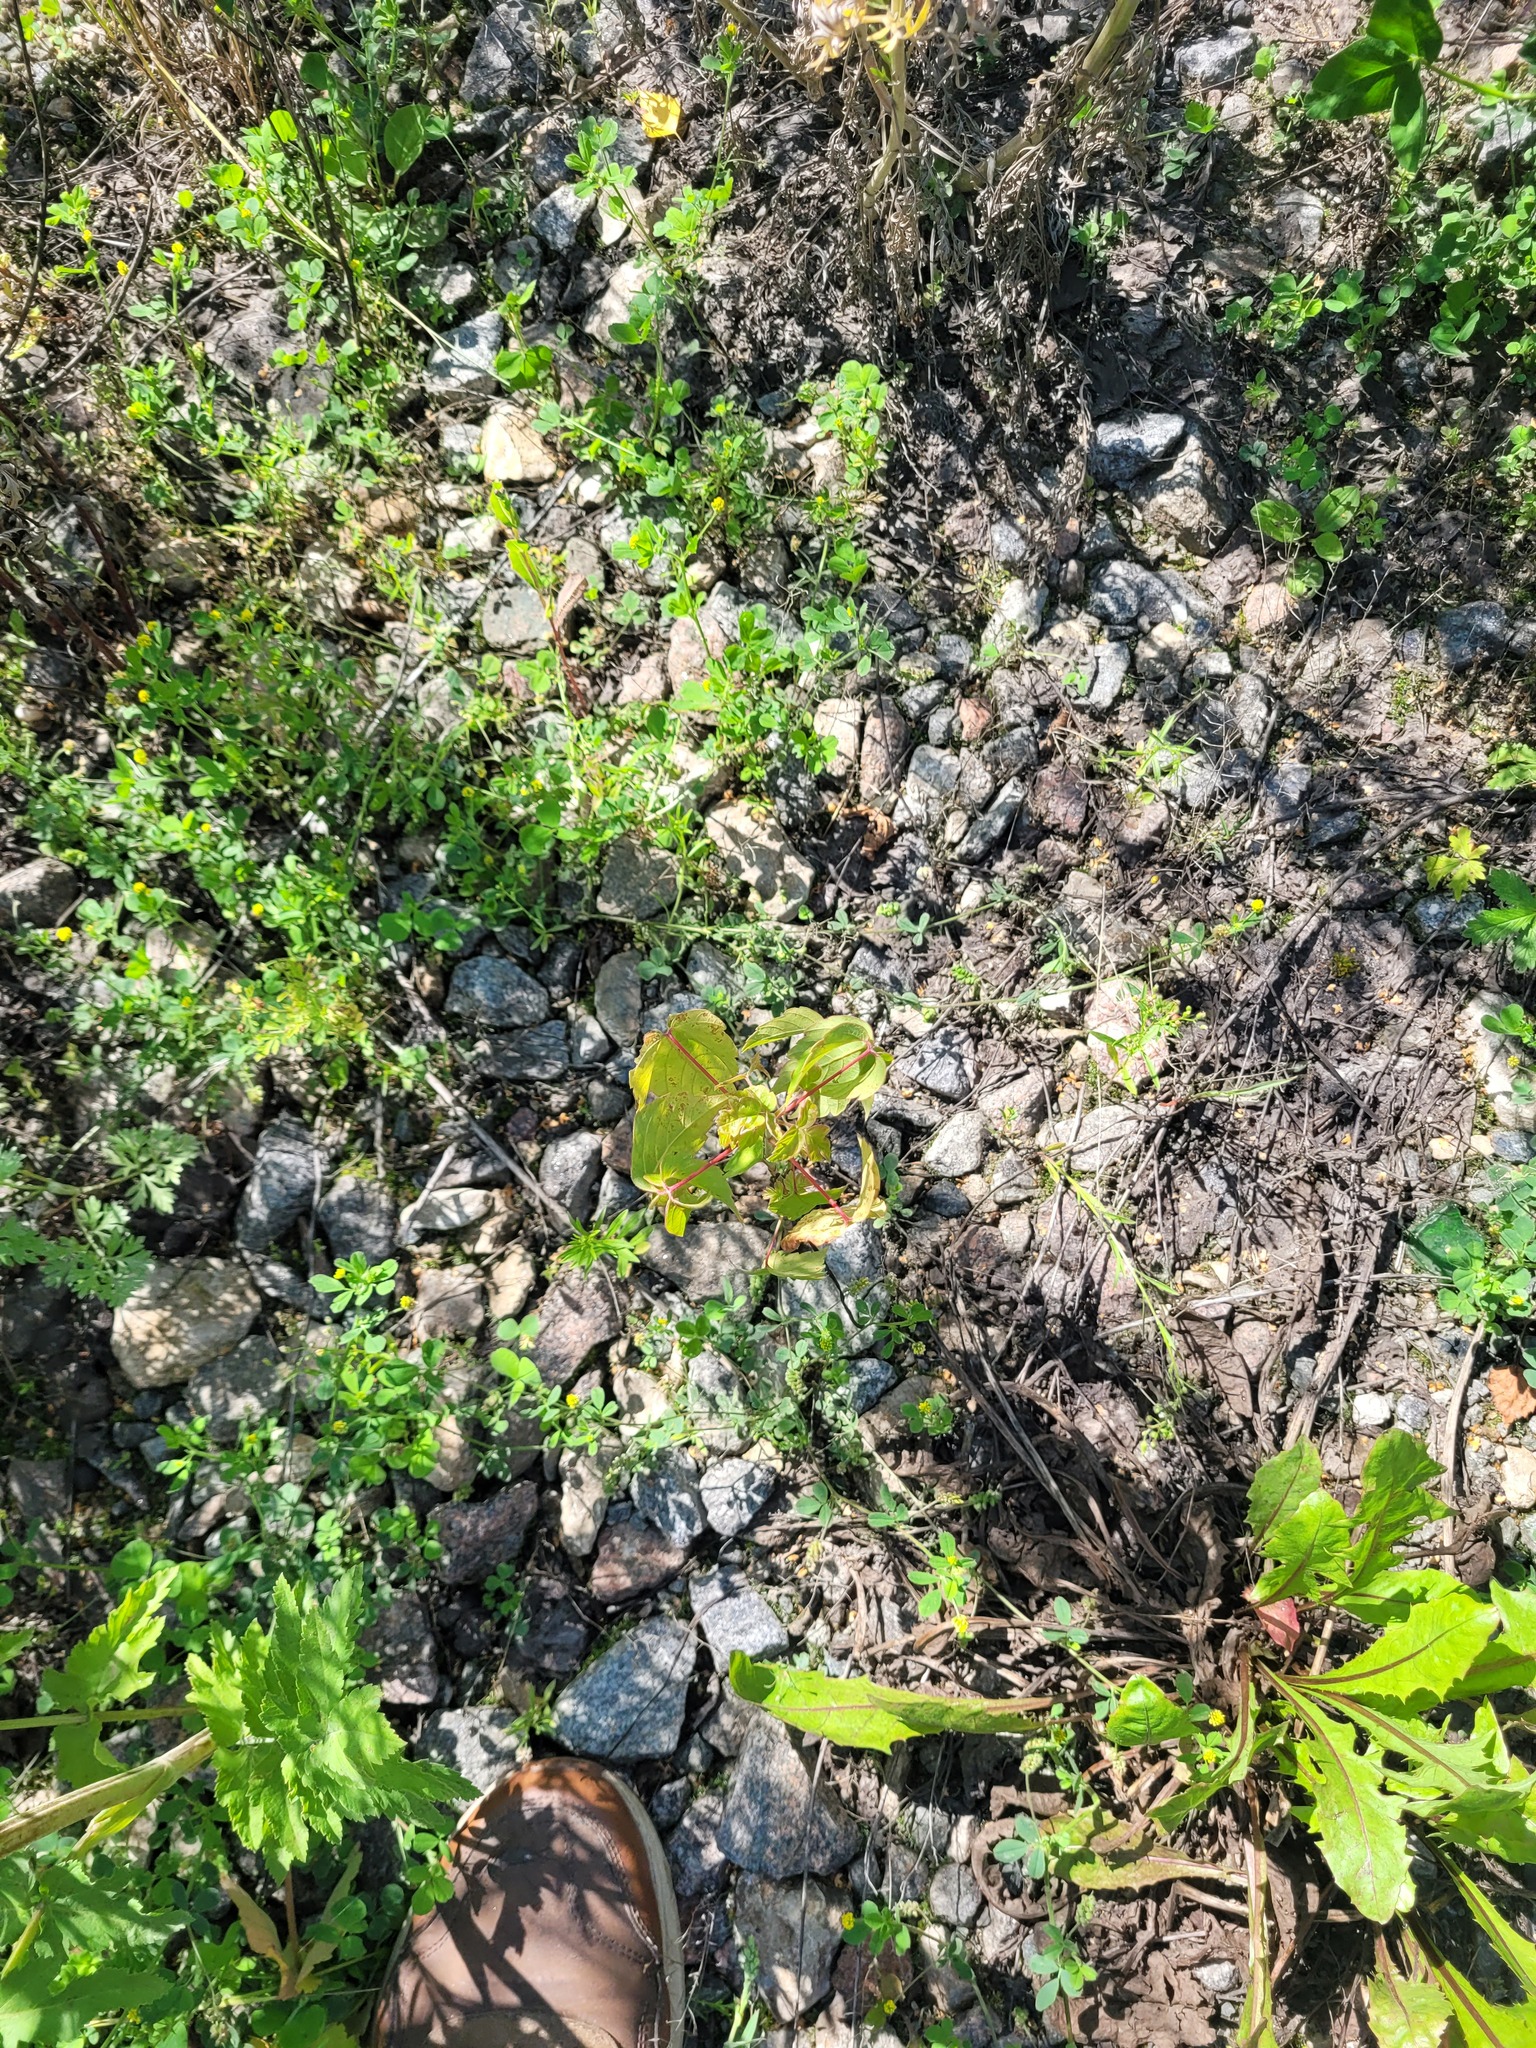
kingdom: Plantae
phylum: Tracheophyta
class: Magnoliopsida
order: Sapindales
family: Sapindaceae
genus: Acer
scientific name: Acer negundo
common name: Ashleaf maple
